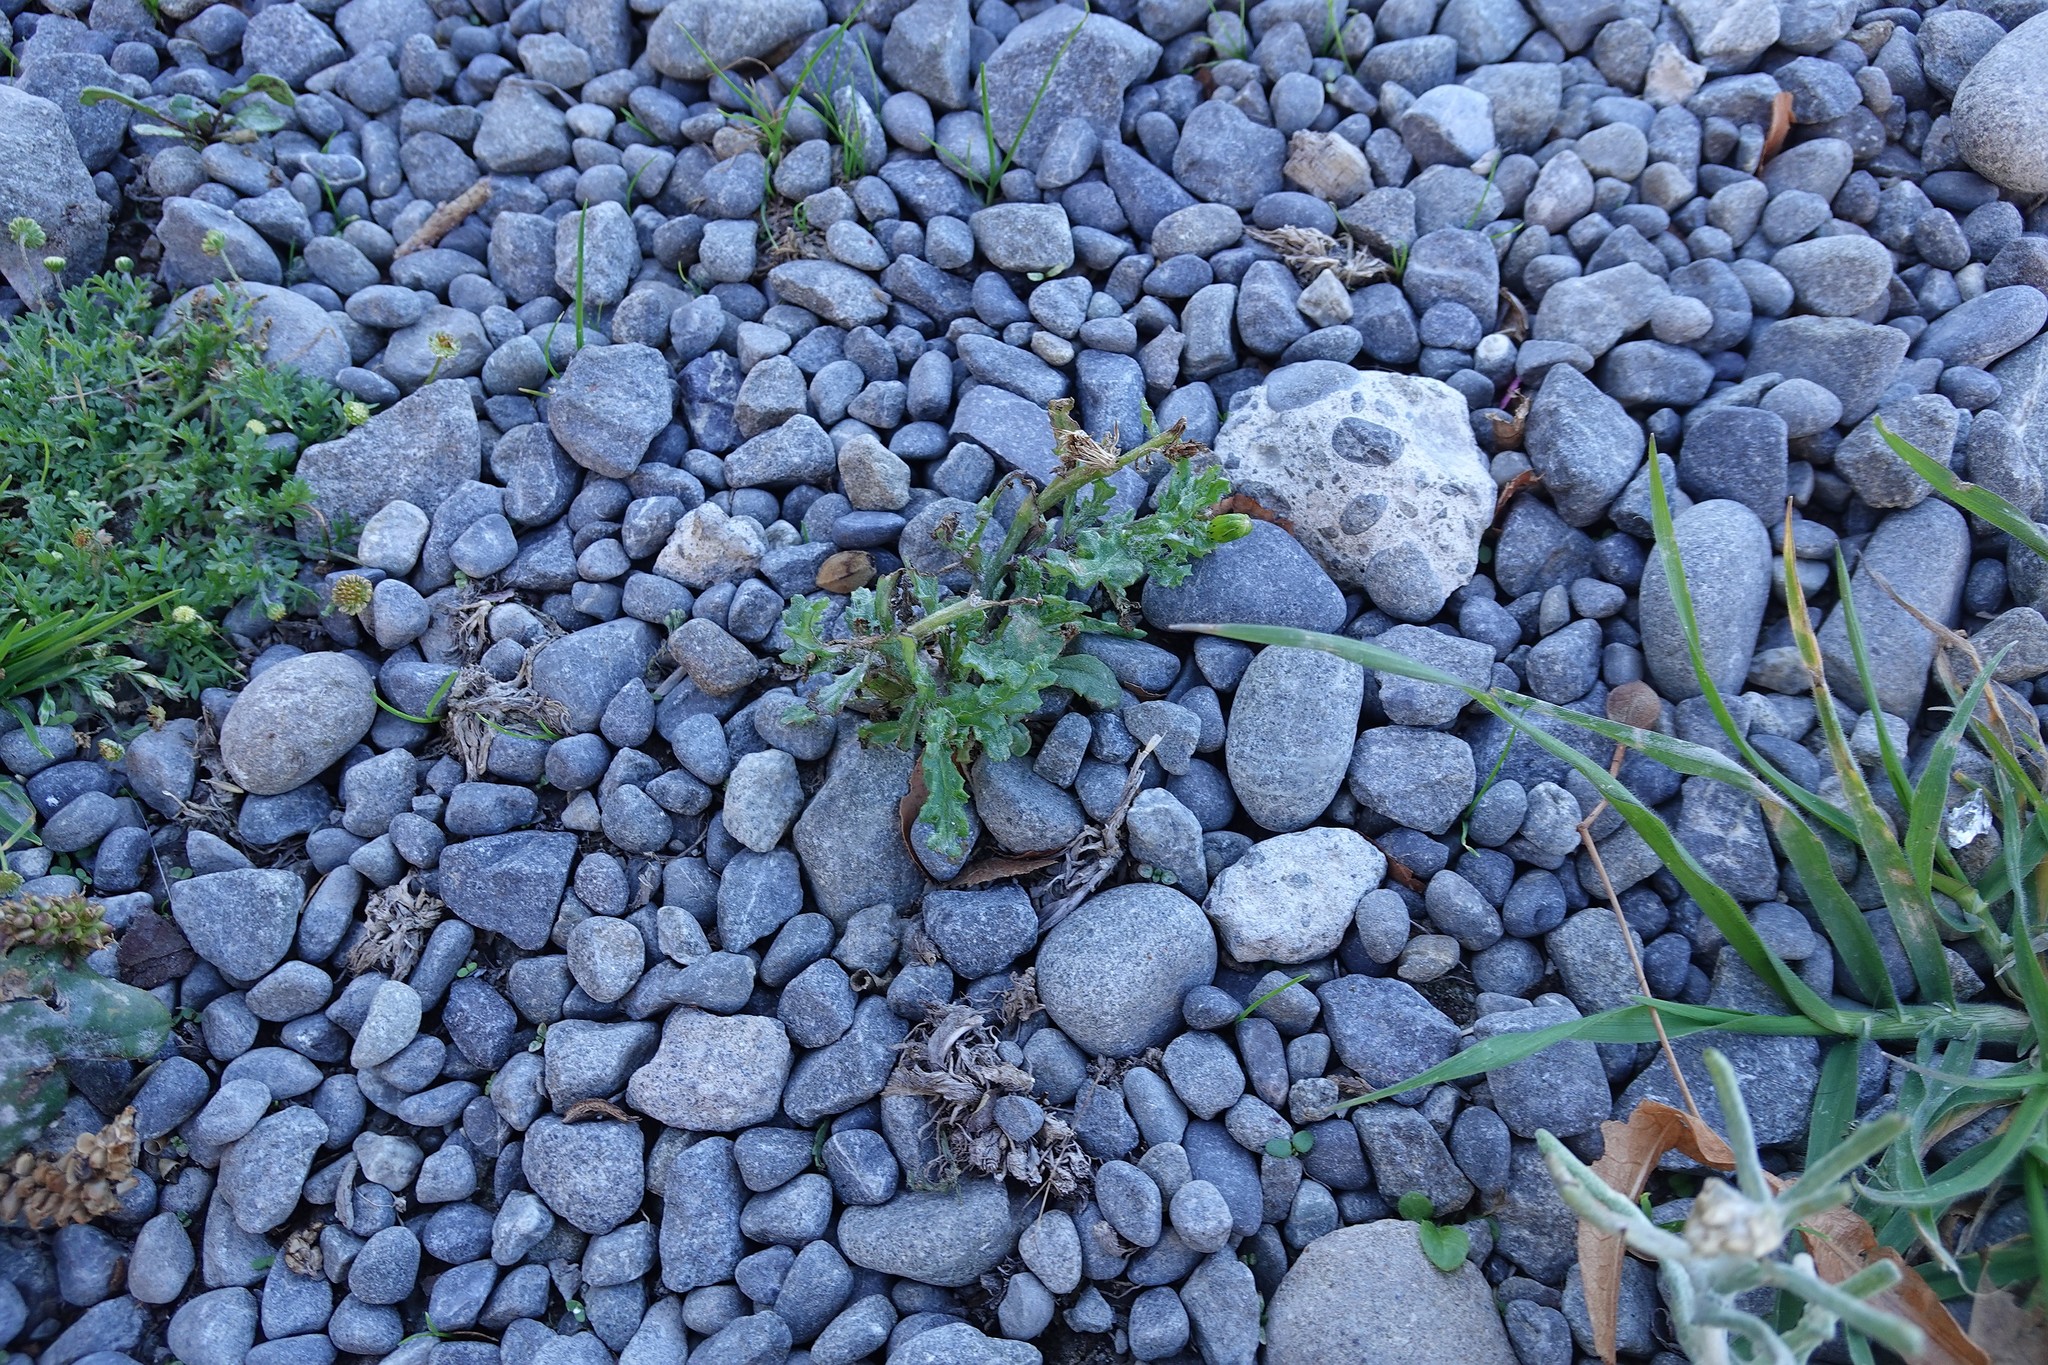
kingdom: Plantae
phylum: Tracheophyta
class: Magnoliopsida
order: Asterales
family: Asteraceae
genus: Senecio
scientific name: Senecio vulgaris
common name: Old-man-in-the-spring
